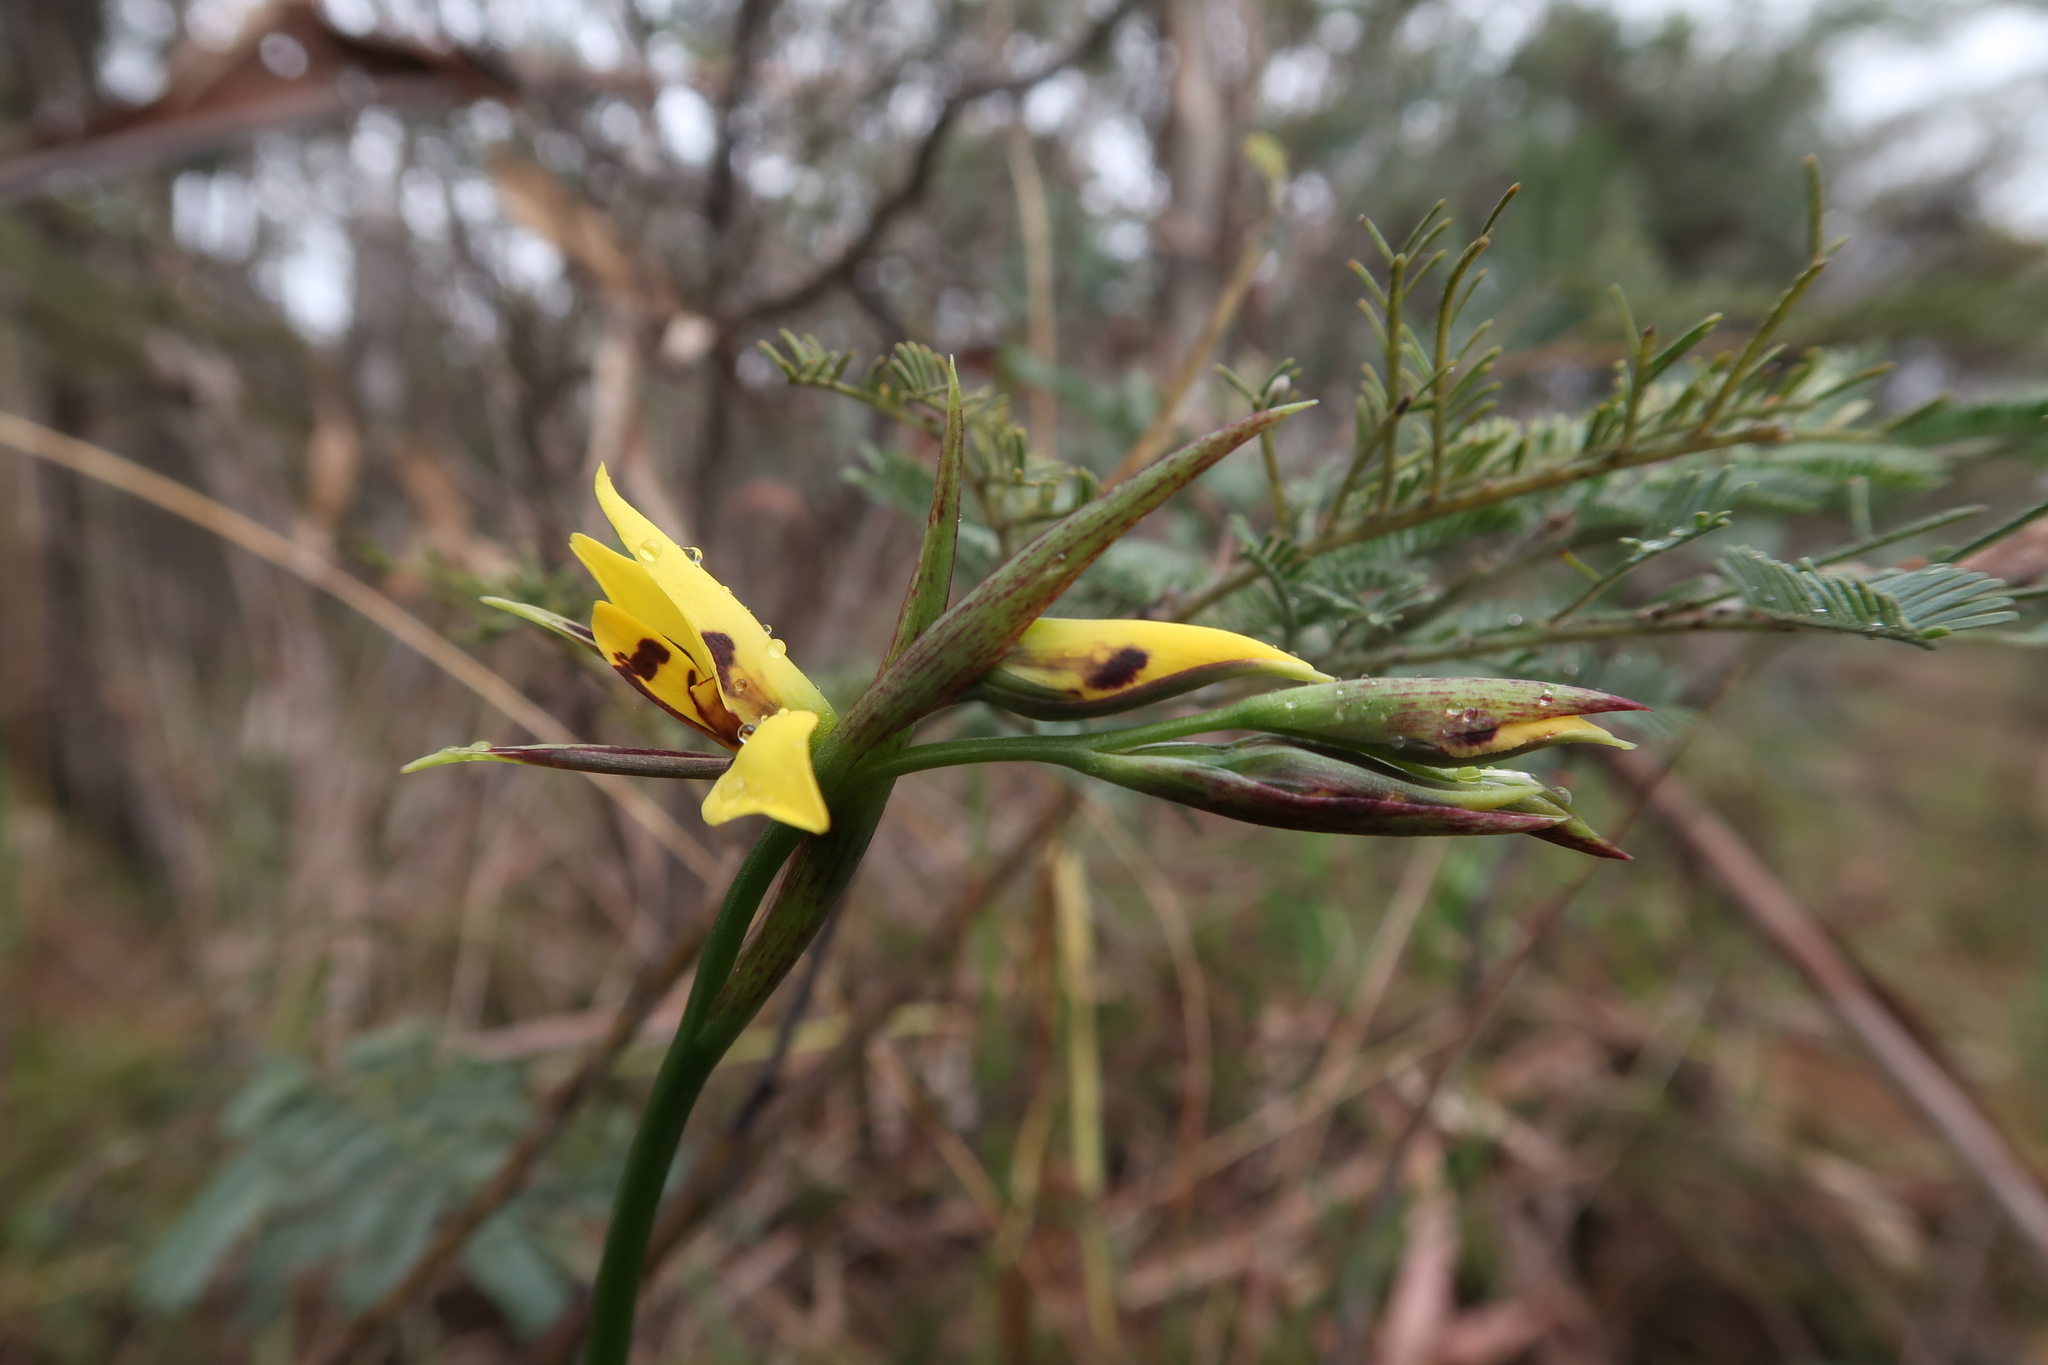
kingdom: Plantae
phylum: Tracheophyta
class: Liliopsida
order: Asparagales
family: Orchidaceae
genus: Diuris
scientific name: Diuris sulphurea
